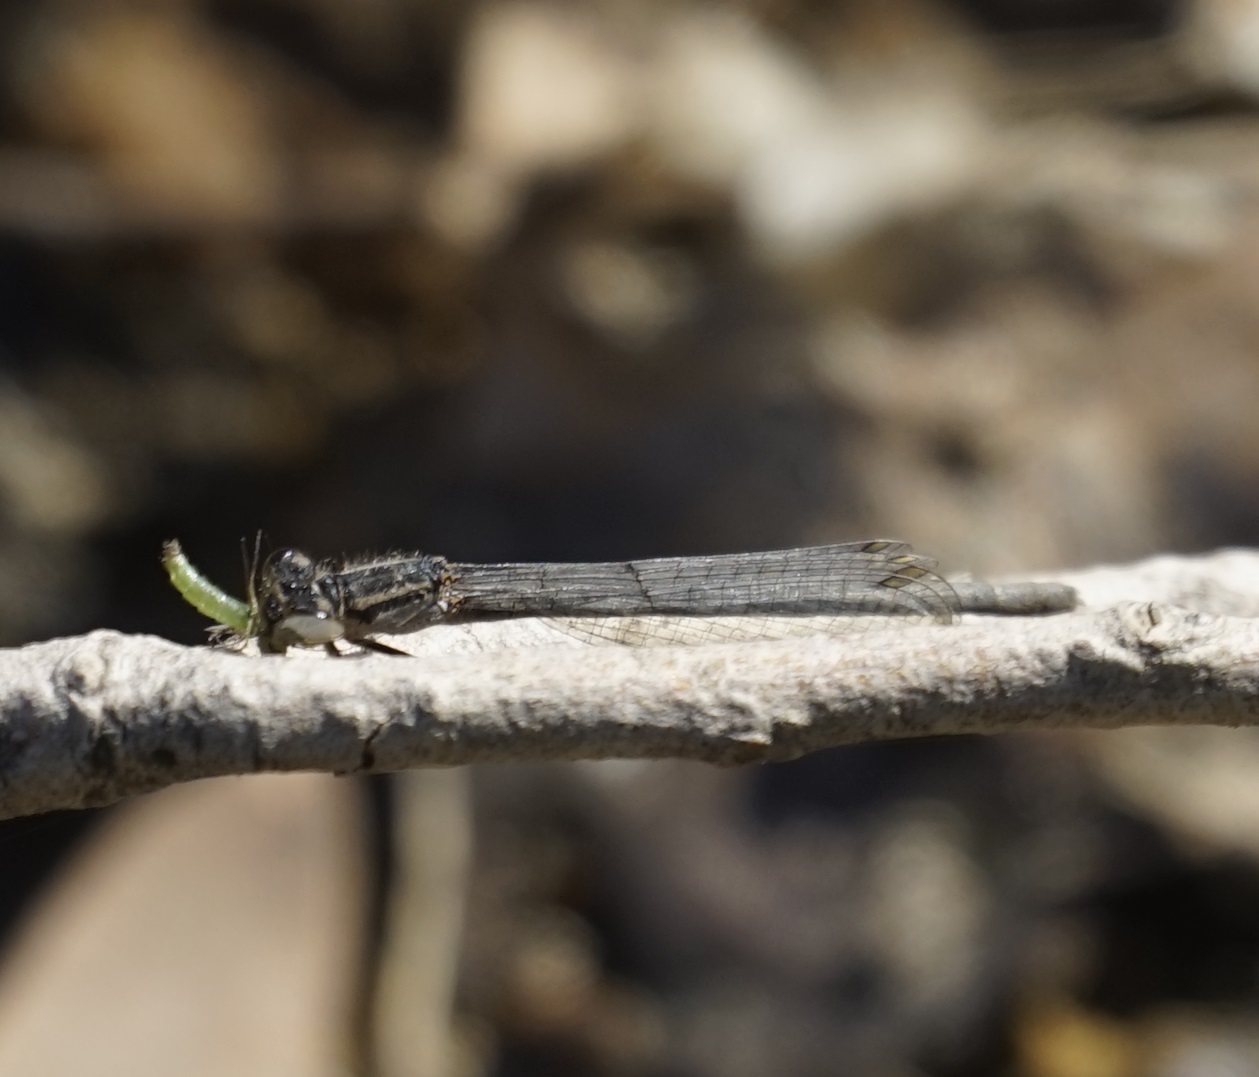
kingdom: Animalia
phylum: Arthropoda
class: Insecta
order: Odonata
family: Coenagrionidae
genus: Ischnura
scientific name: Ischnura heterosticta
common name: Common bluetail
